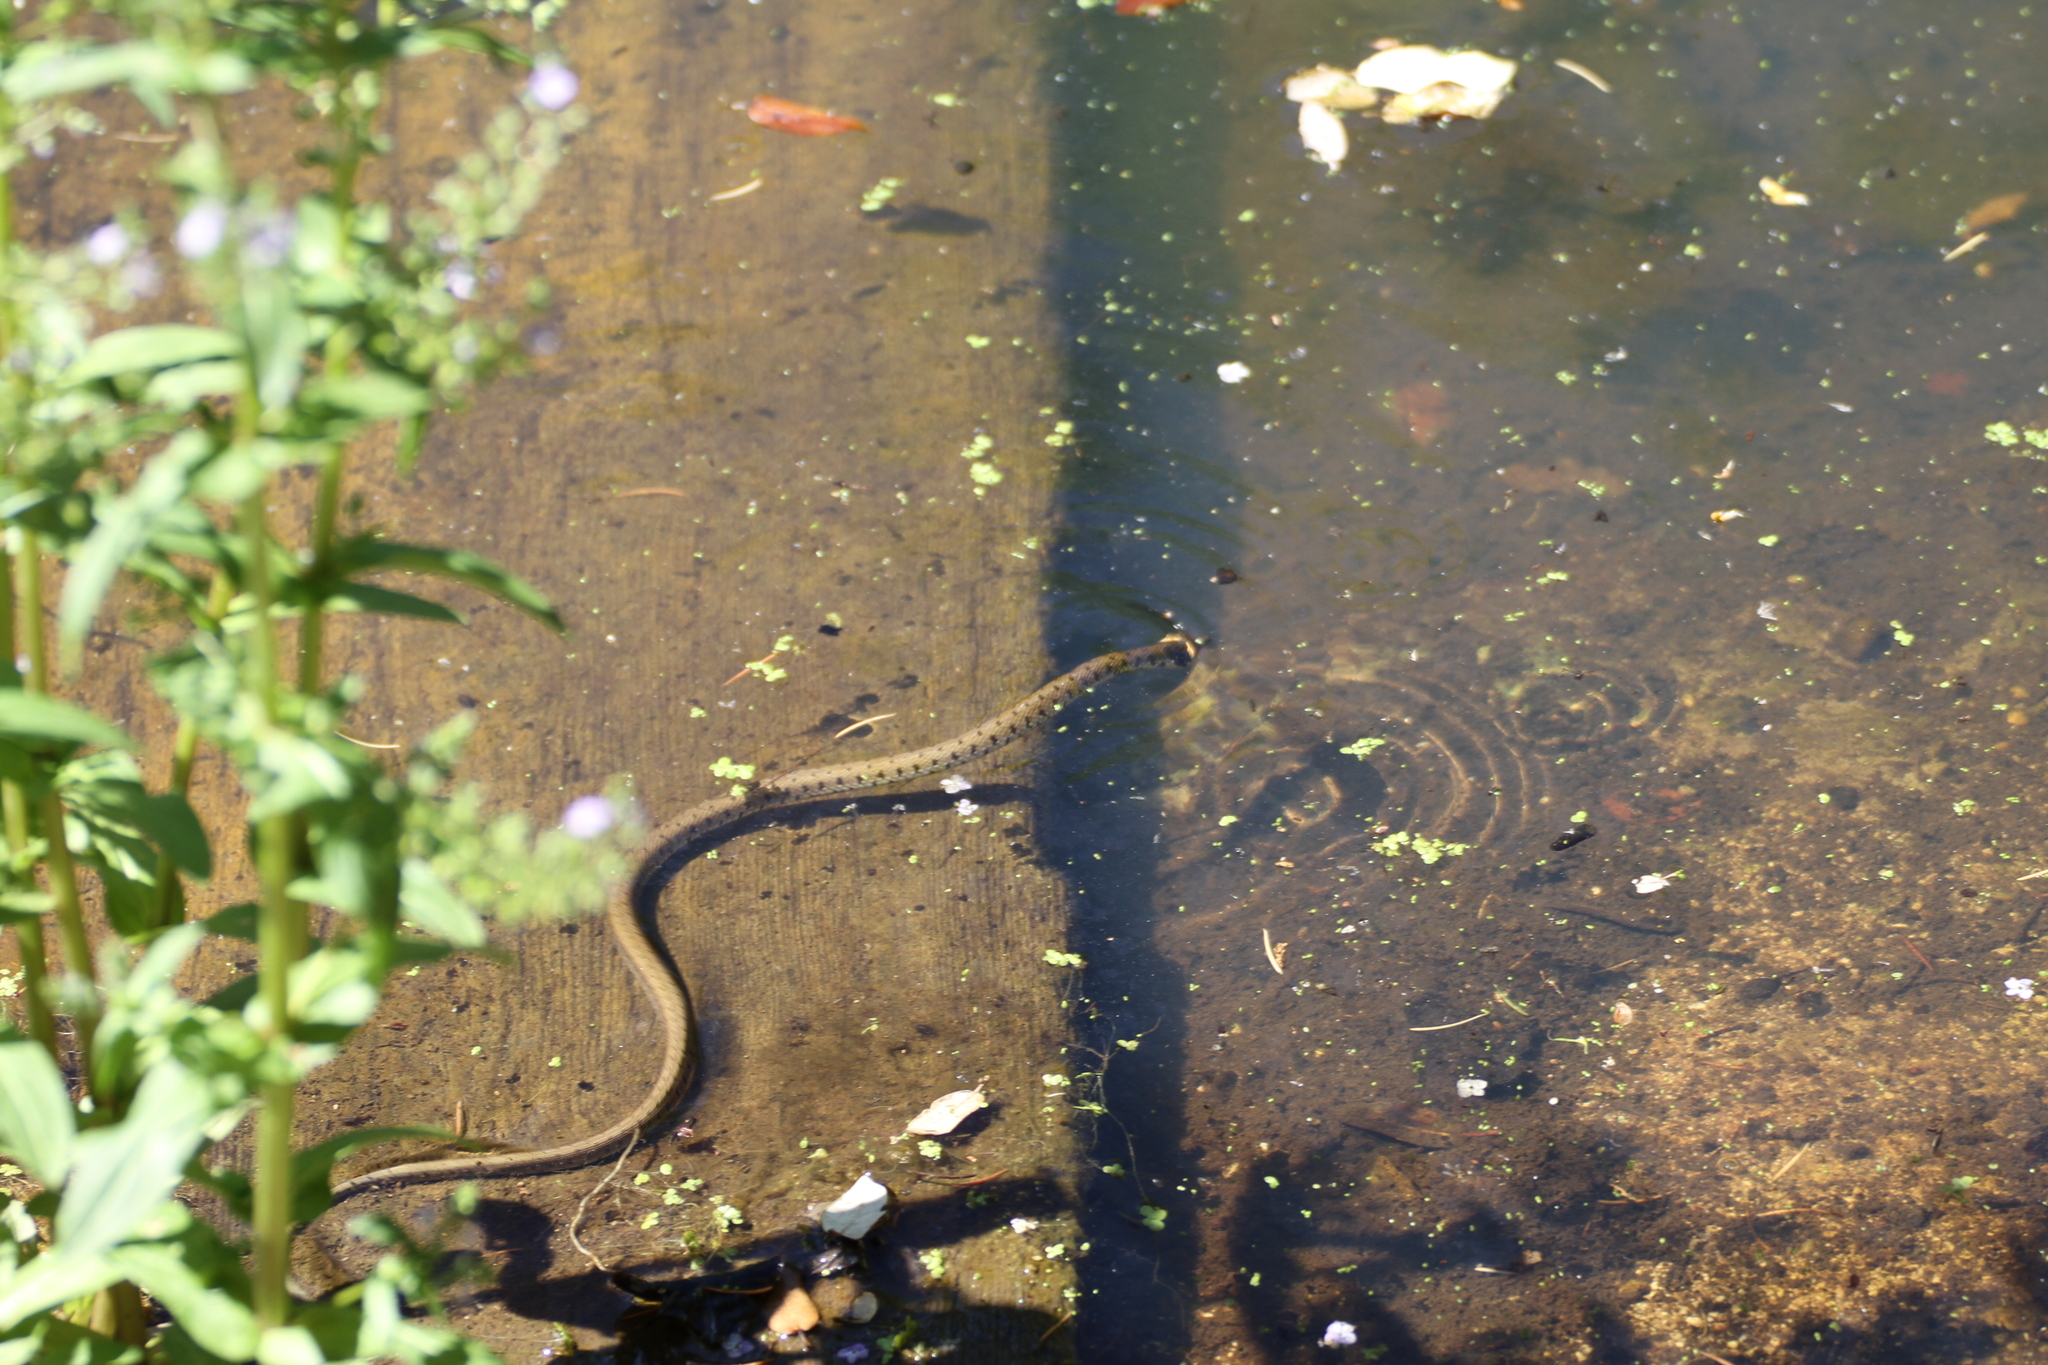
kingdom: Animalia
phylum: Chordata
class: Squamata
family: Colubridae
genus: Natrix
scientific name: Natrix helvetica
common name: Banded grass snake
